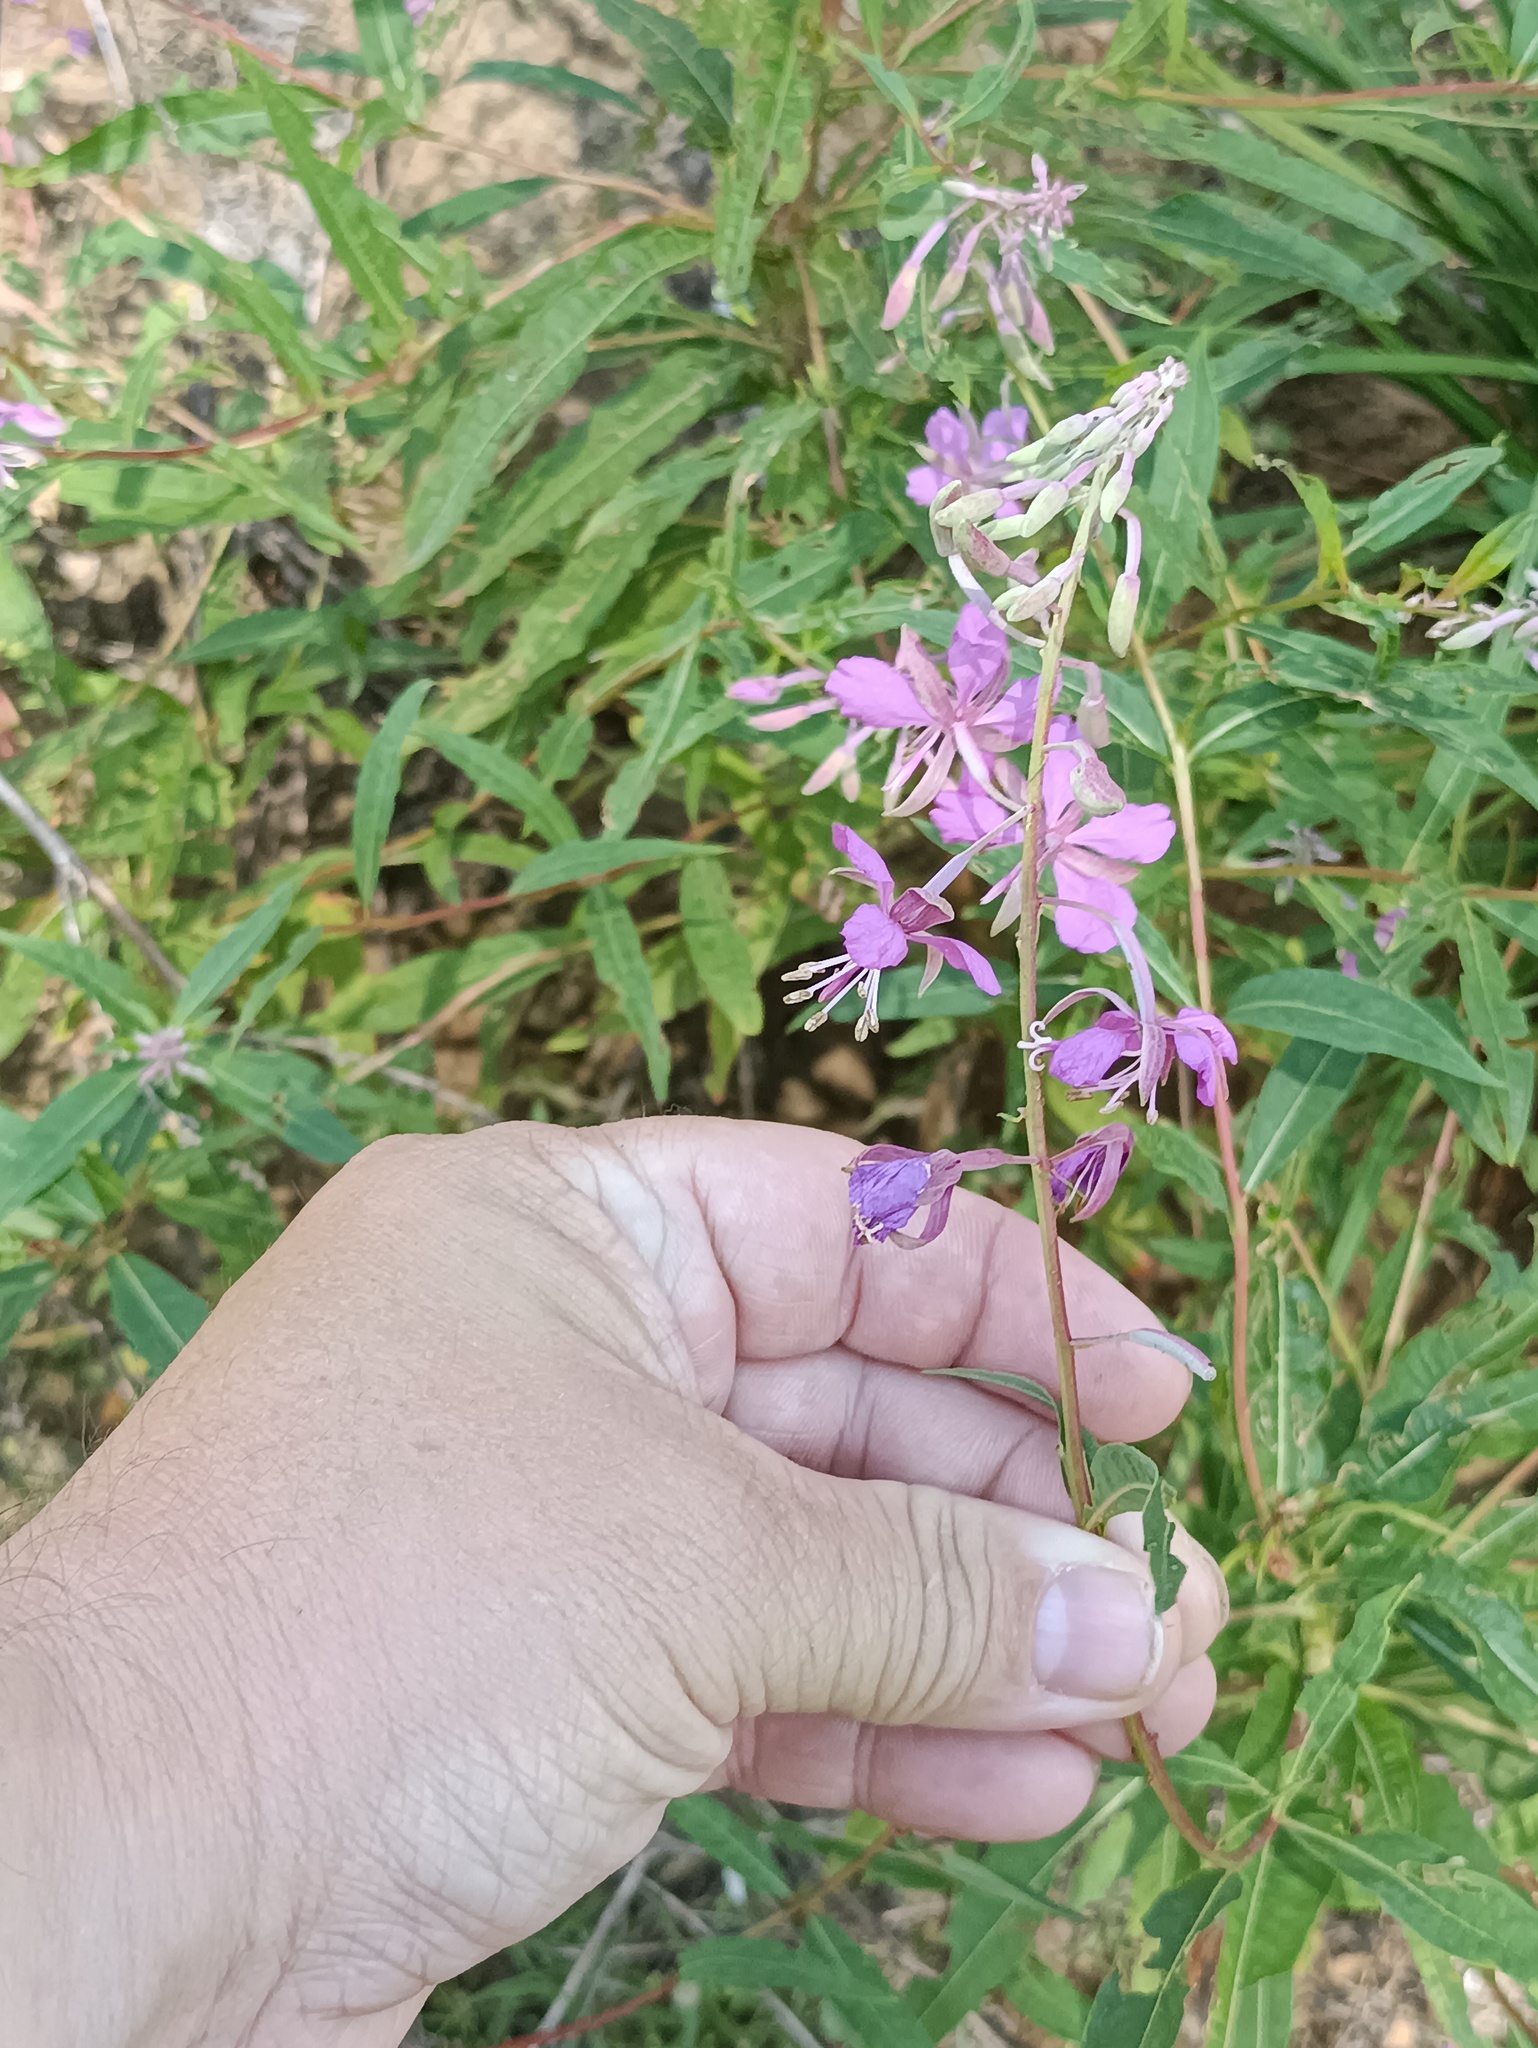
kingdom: Plantae
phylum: Tracheophyta
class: Magnoliopsida
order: Myrtales
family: Onagraceae
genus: Chamaenerion
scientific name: Chamaenerion angustifolium
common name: Fireweed
